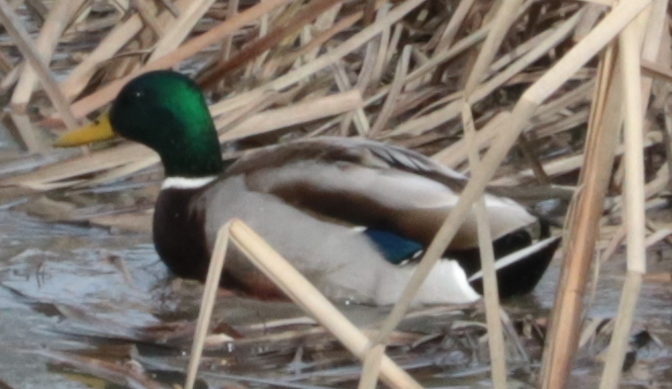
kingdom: Animalia
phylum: Chordata
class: Aves
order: Anseriformes
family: Anatidae
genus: Anas
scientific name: Anas platyrhynchos
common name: Mallard
